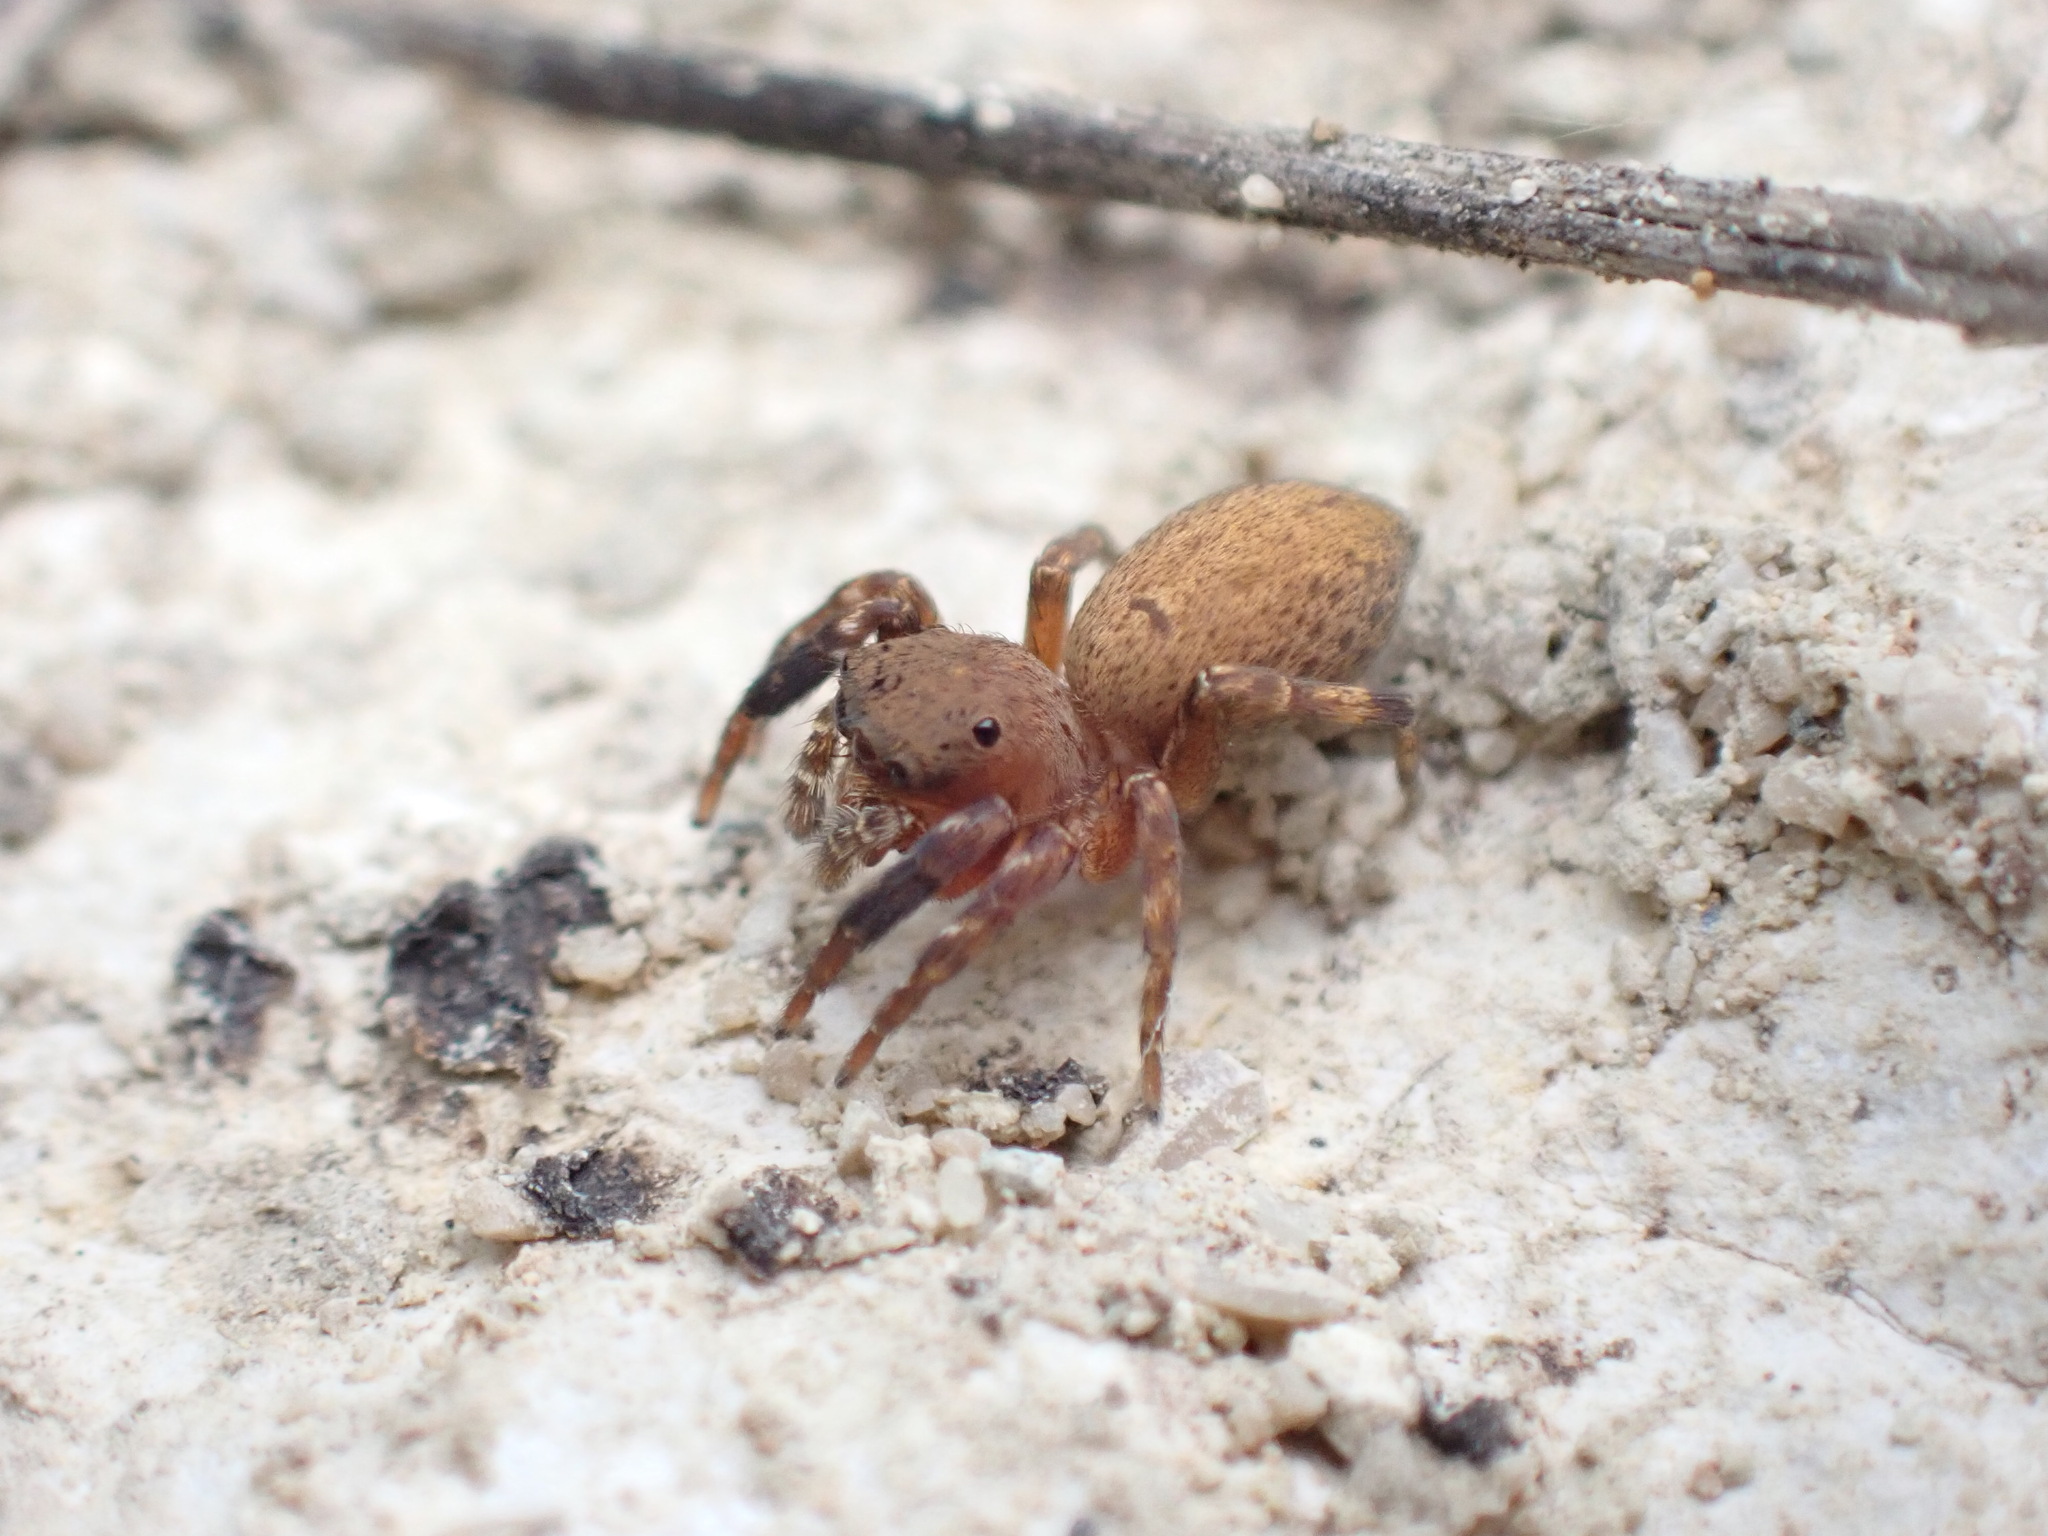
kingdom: Animalia
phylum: Arthropoda
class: Arachnida
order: Araneae
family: Salticidae
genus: Cyrba
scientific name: Cyrba algerina
